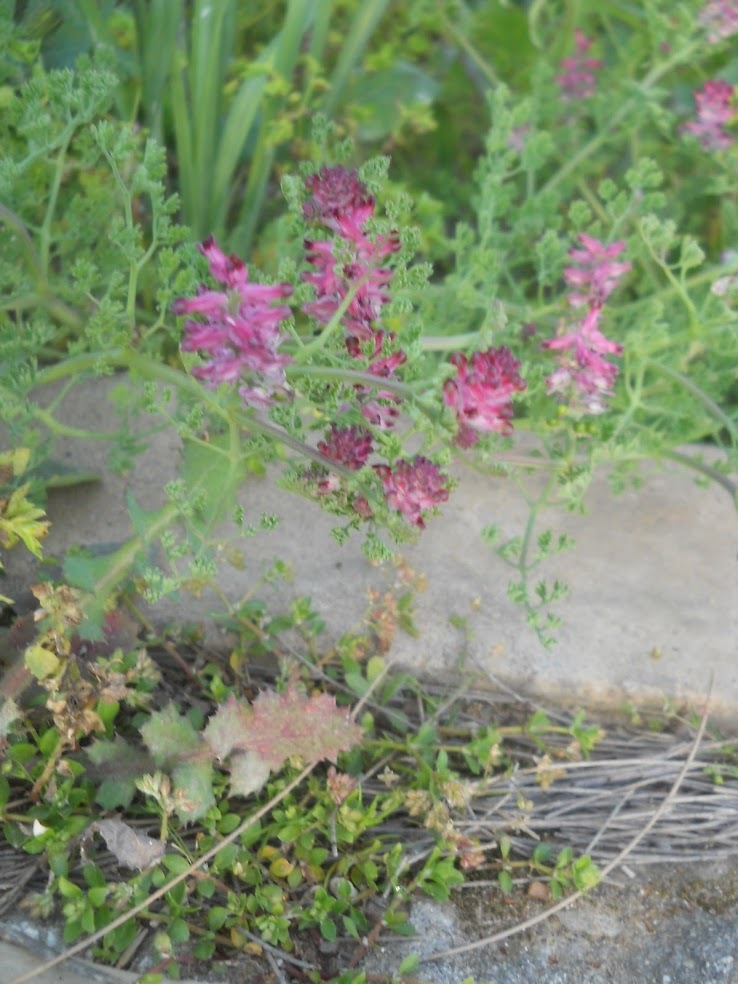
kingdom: Plantae
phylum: Tracheophyta
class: Magnoliopsida
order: Ranunculales
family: Papaveraceae
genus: Fumaria
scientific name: Fumaria densiflora
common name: Dense-flowered fumitory
